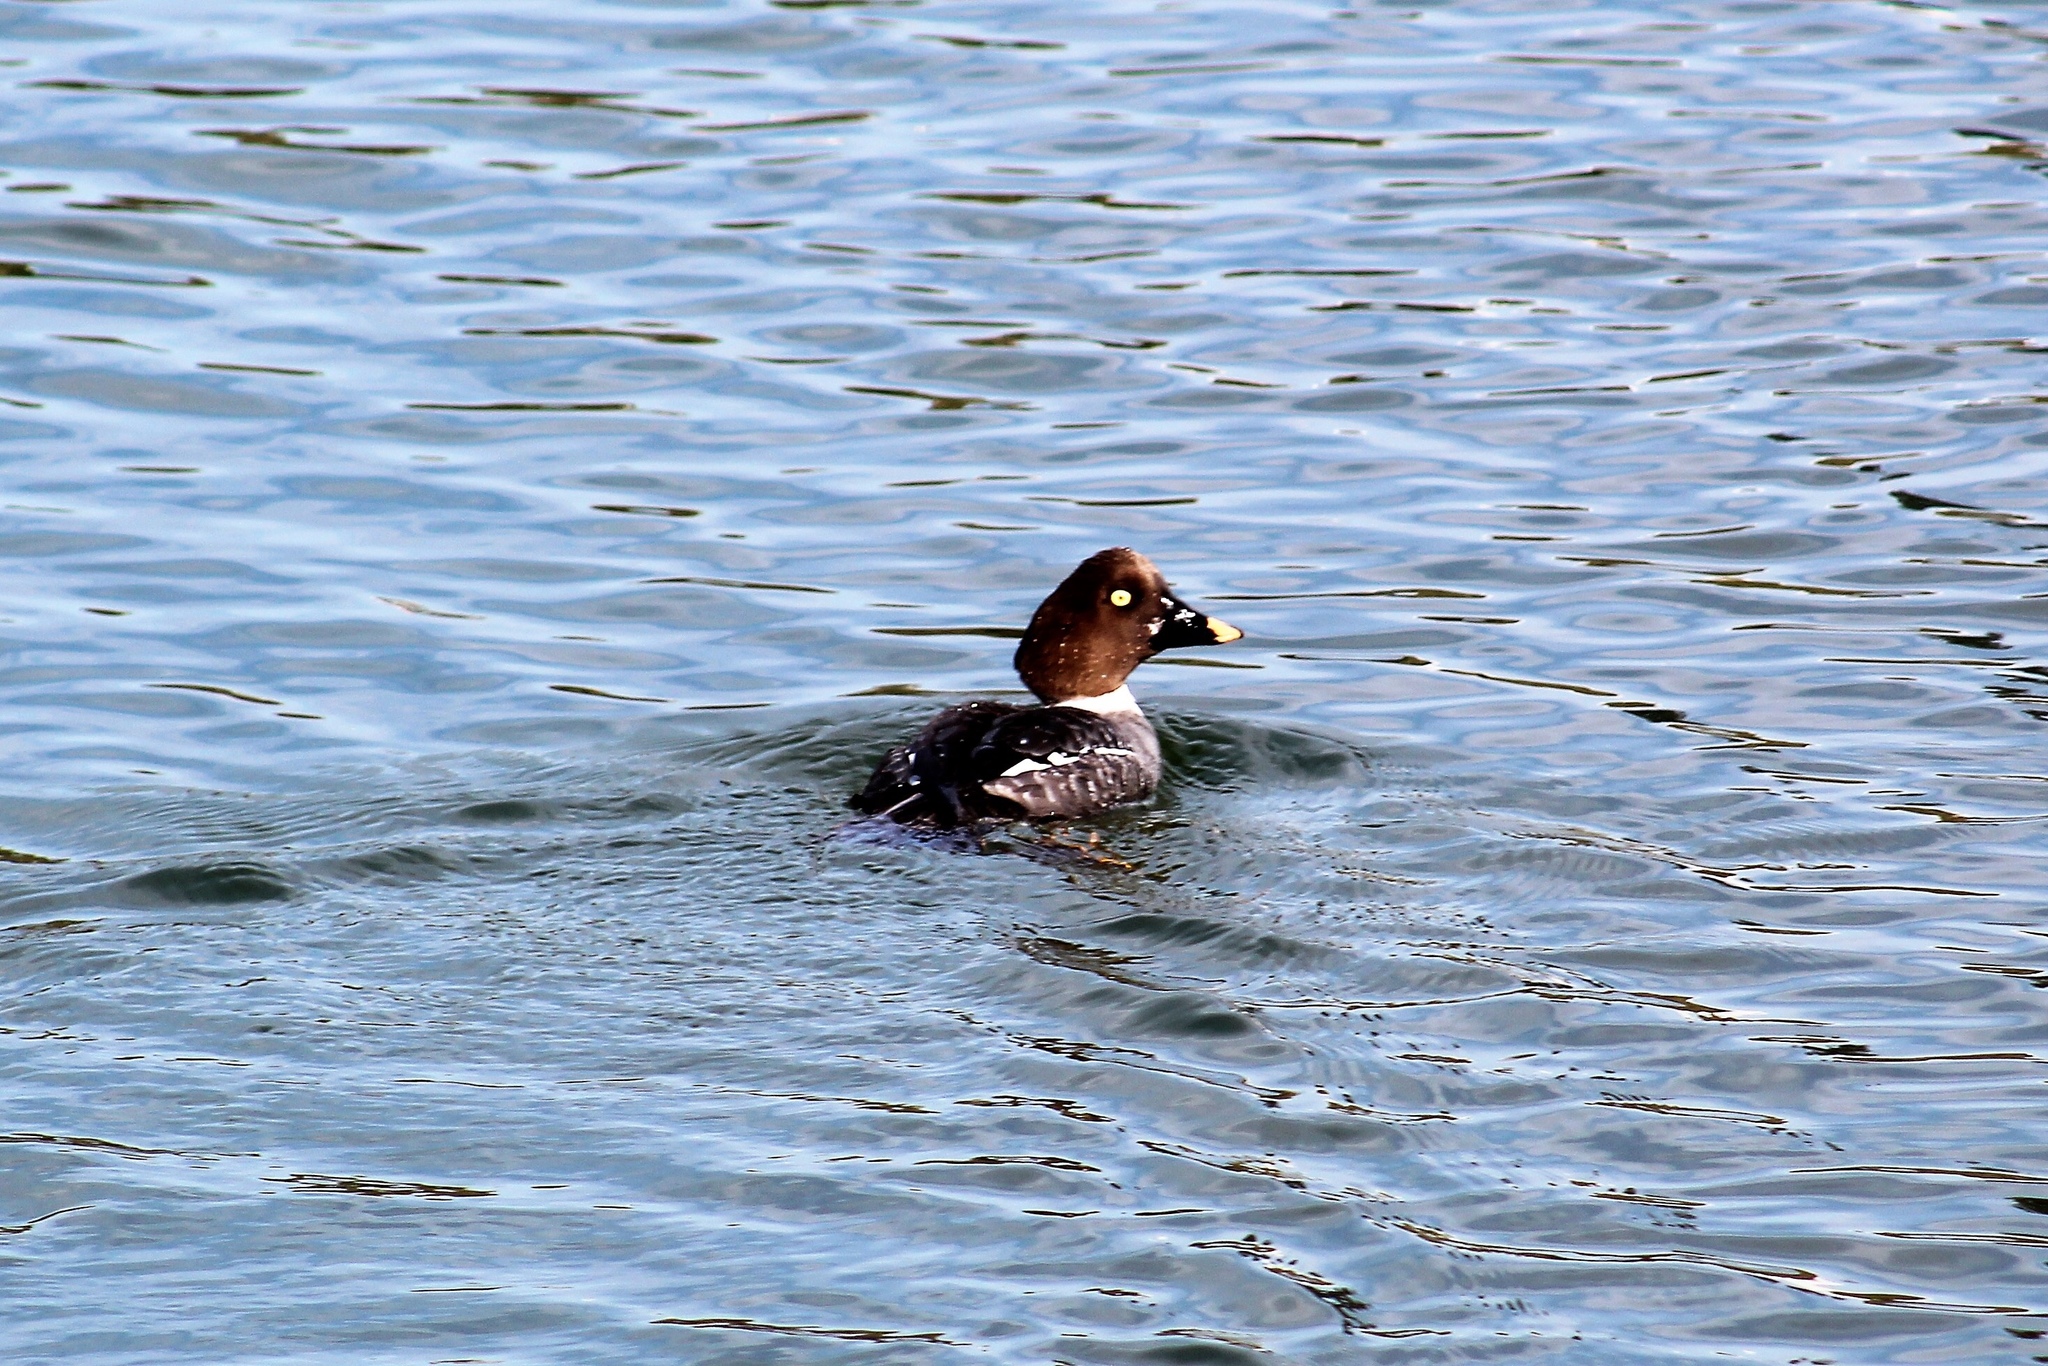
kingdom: Animalia
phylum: Chordata
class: Aves
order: Anseriformes
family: Anatidae
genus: Bucephala
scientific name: Bucephala clangula
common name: Common goldeneye
